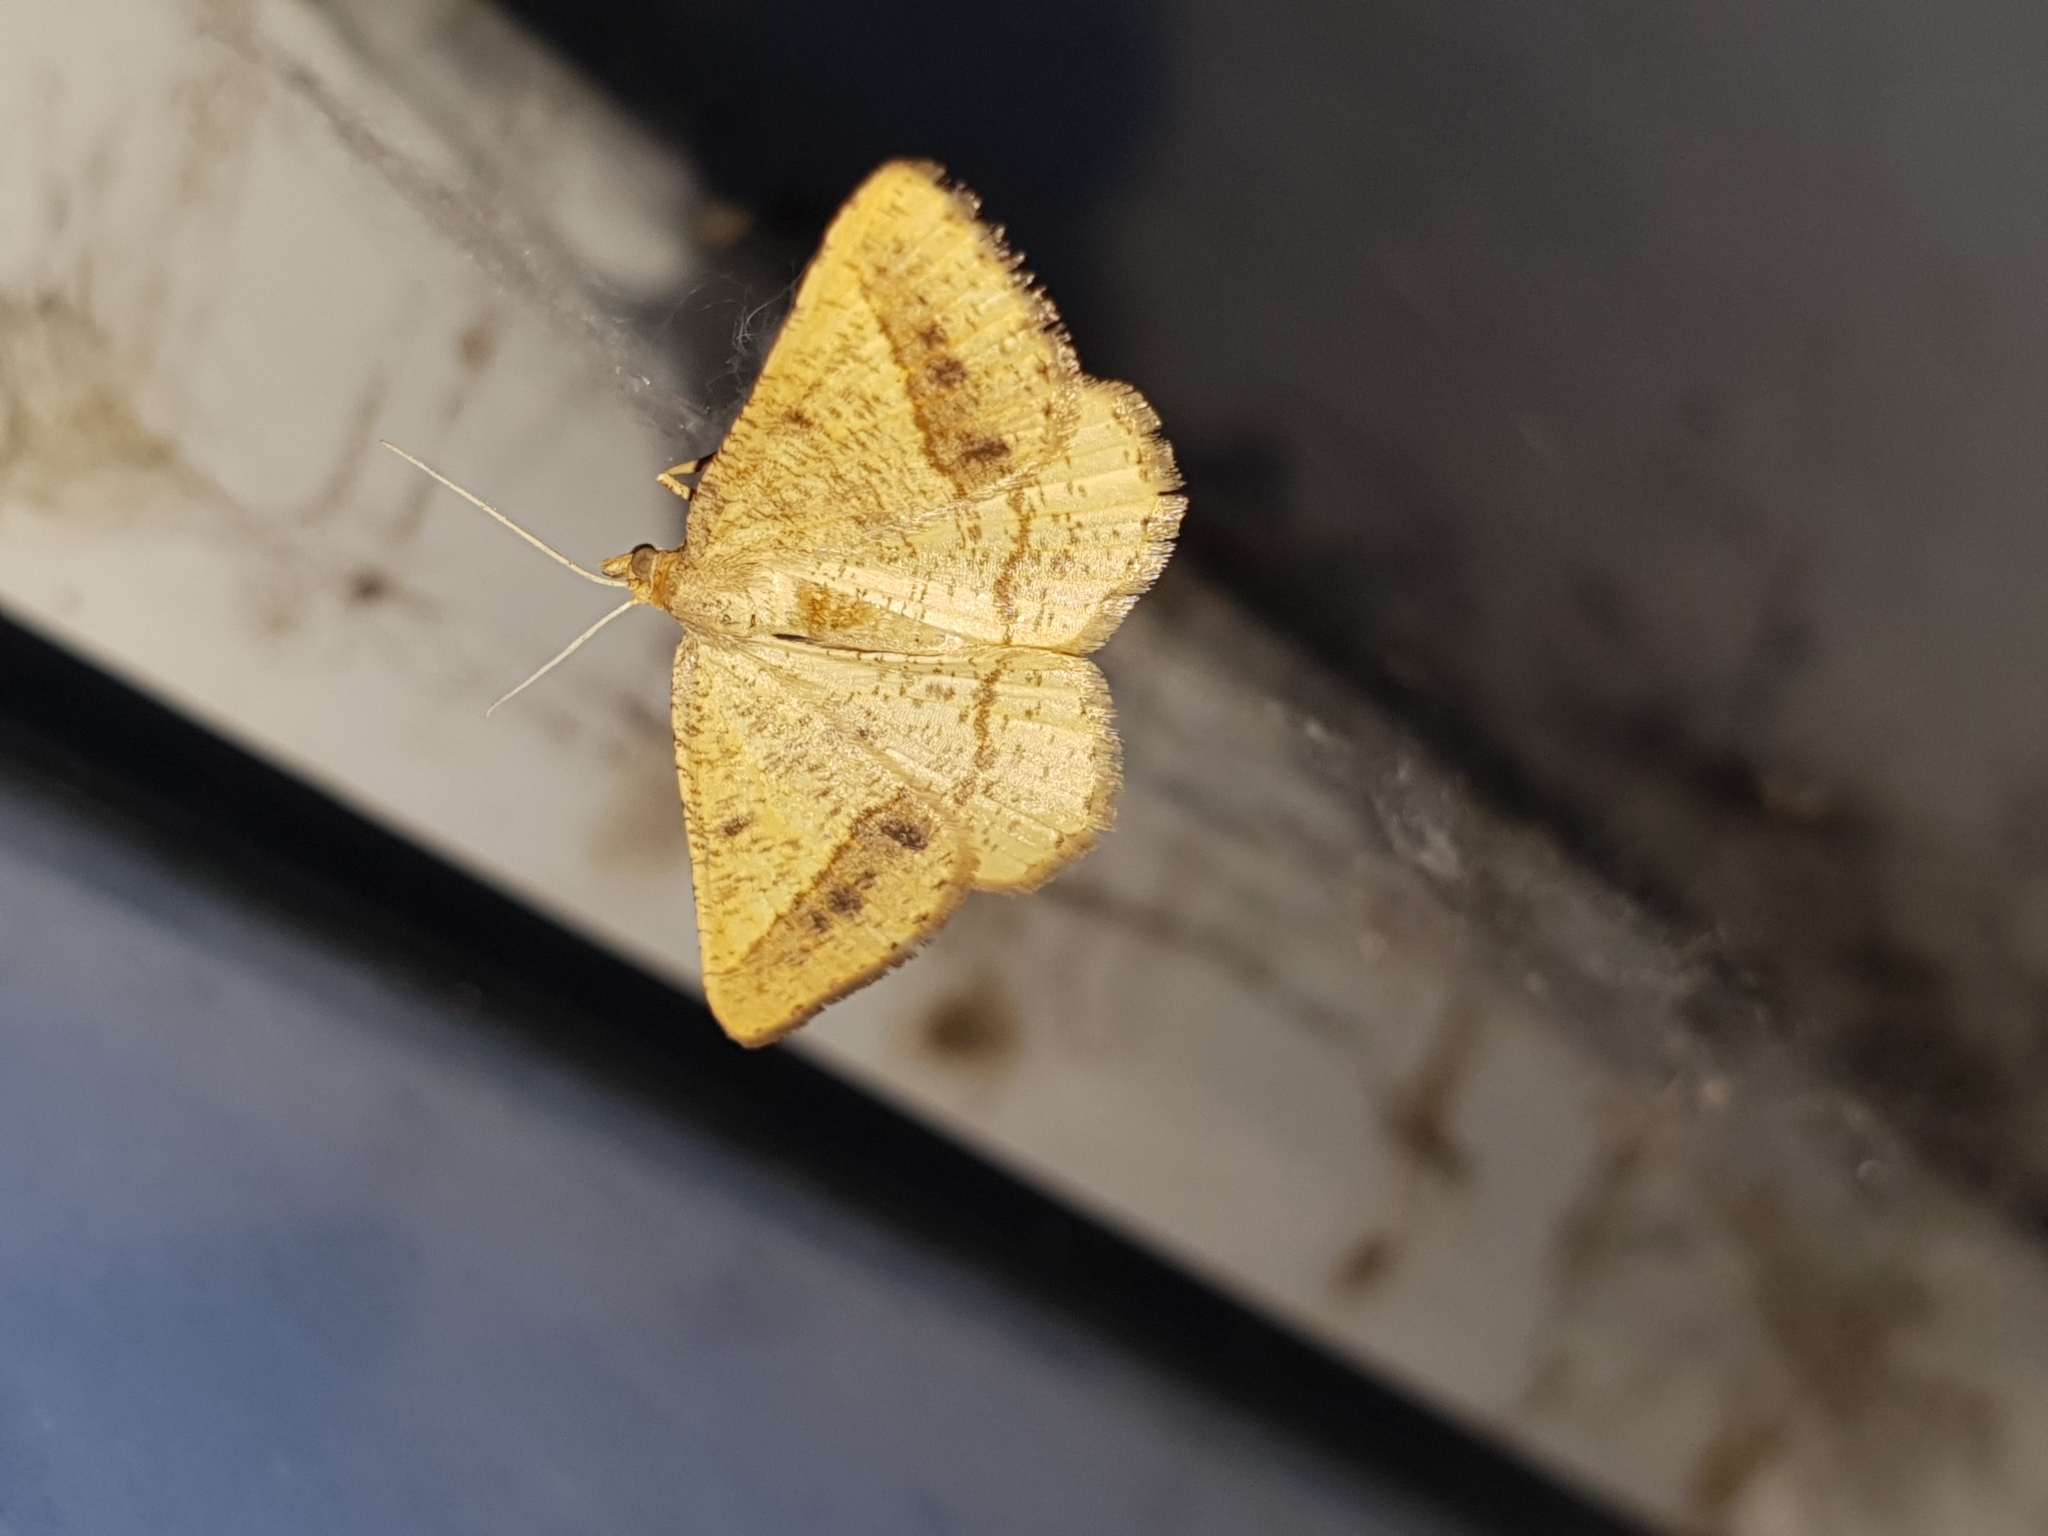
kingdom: Animalia
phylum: Arthropoda
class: Insecta
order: Lepidoptera
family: Geometridae
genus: Tephrina
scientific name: Tephrina arenacearia
